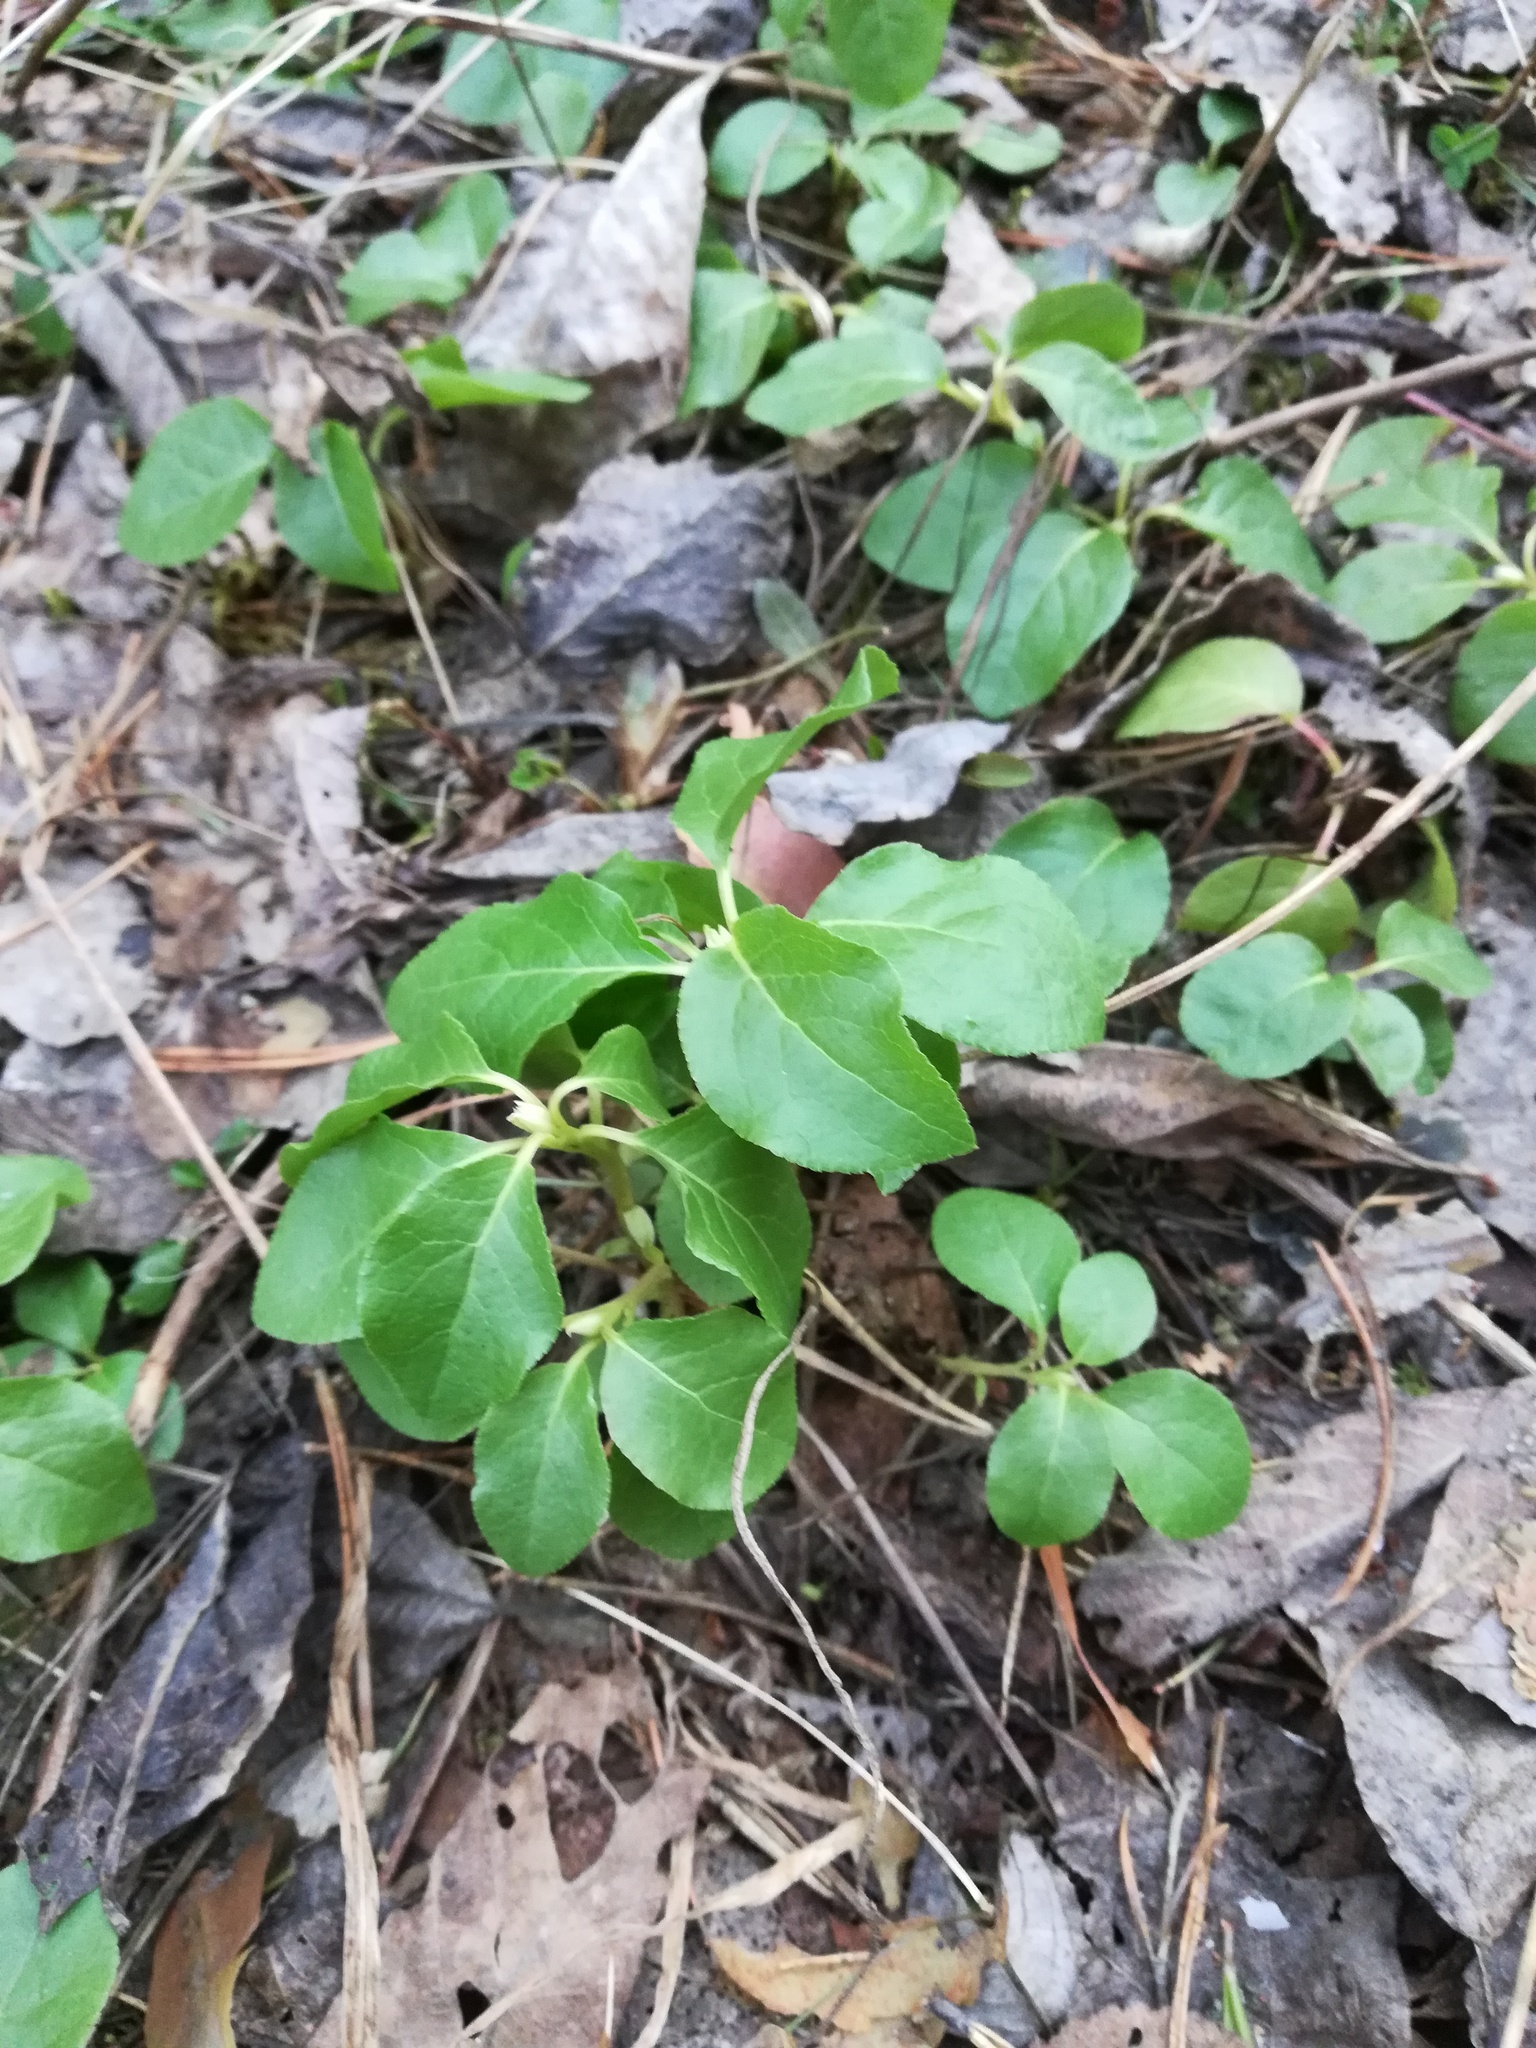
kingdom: Plantae
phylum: Tracheophyta
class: Magnoliopsida
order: Ericales
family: Ericaceae
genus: Orthilia
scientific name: Orthilia secunda
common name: One-sided orthilia
